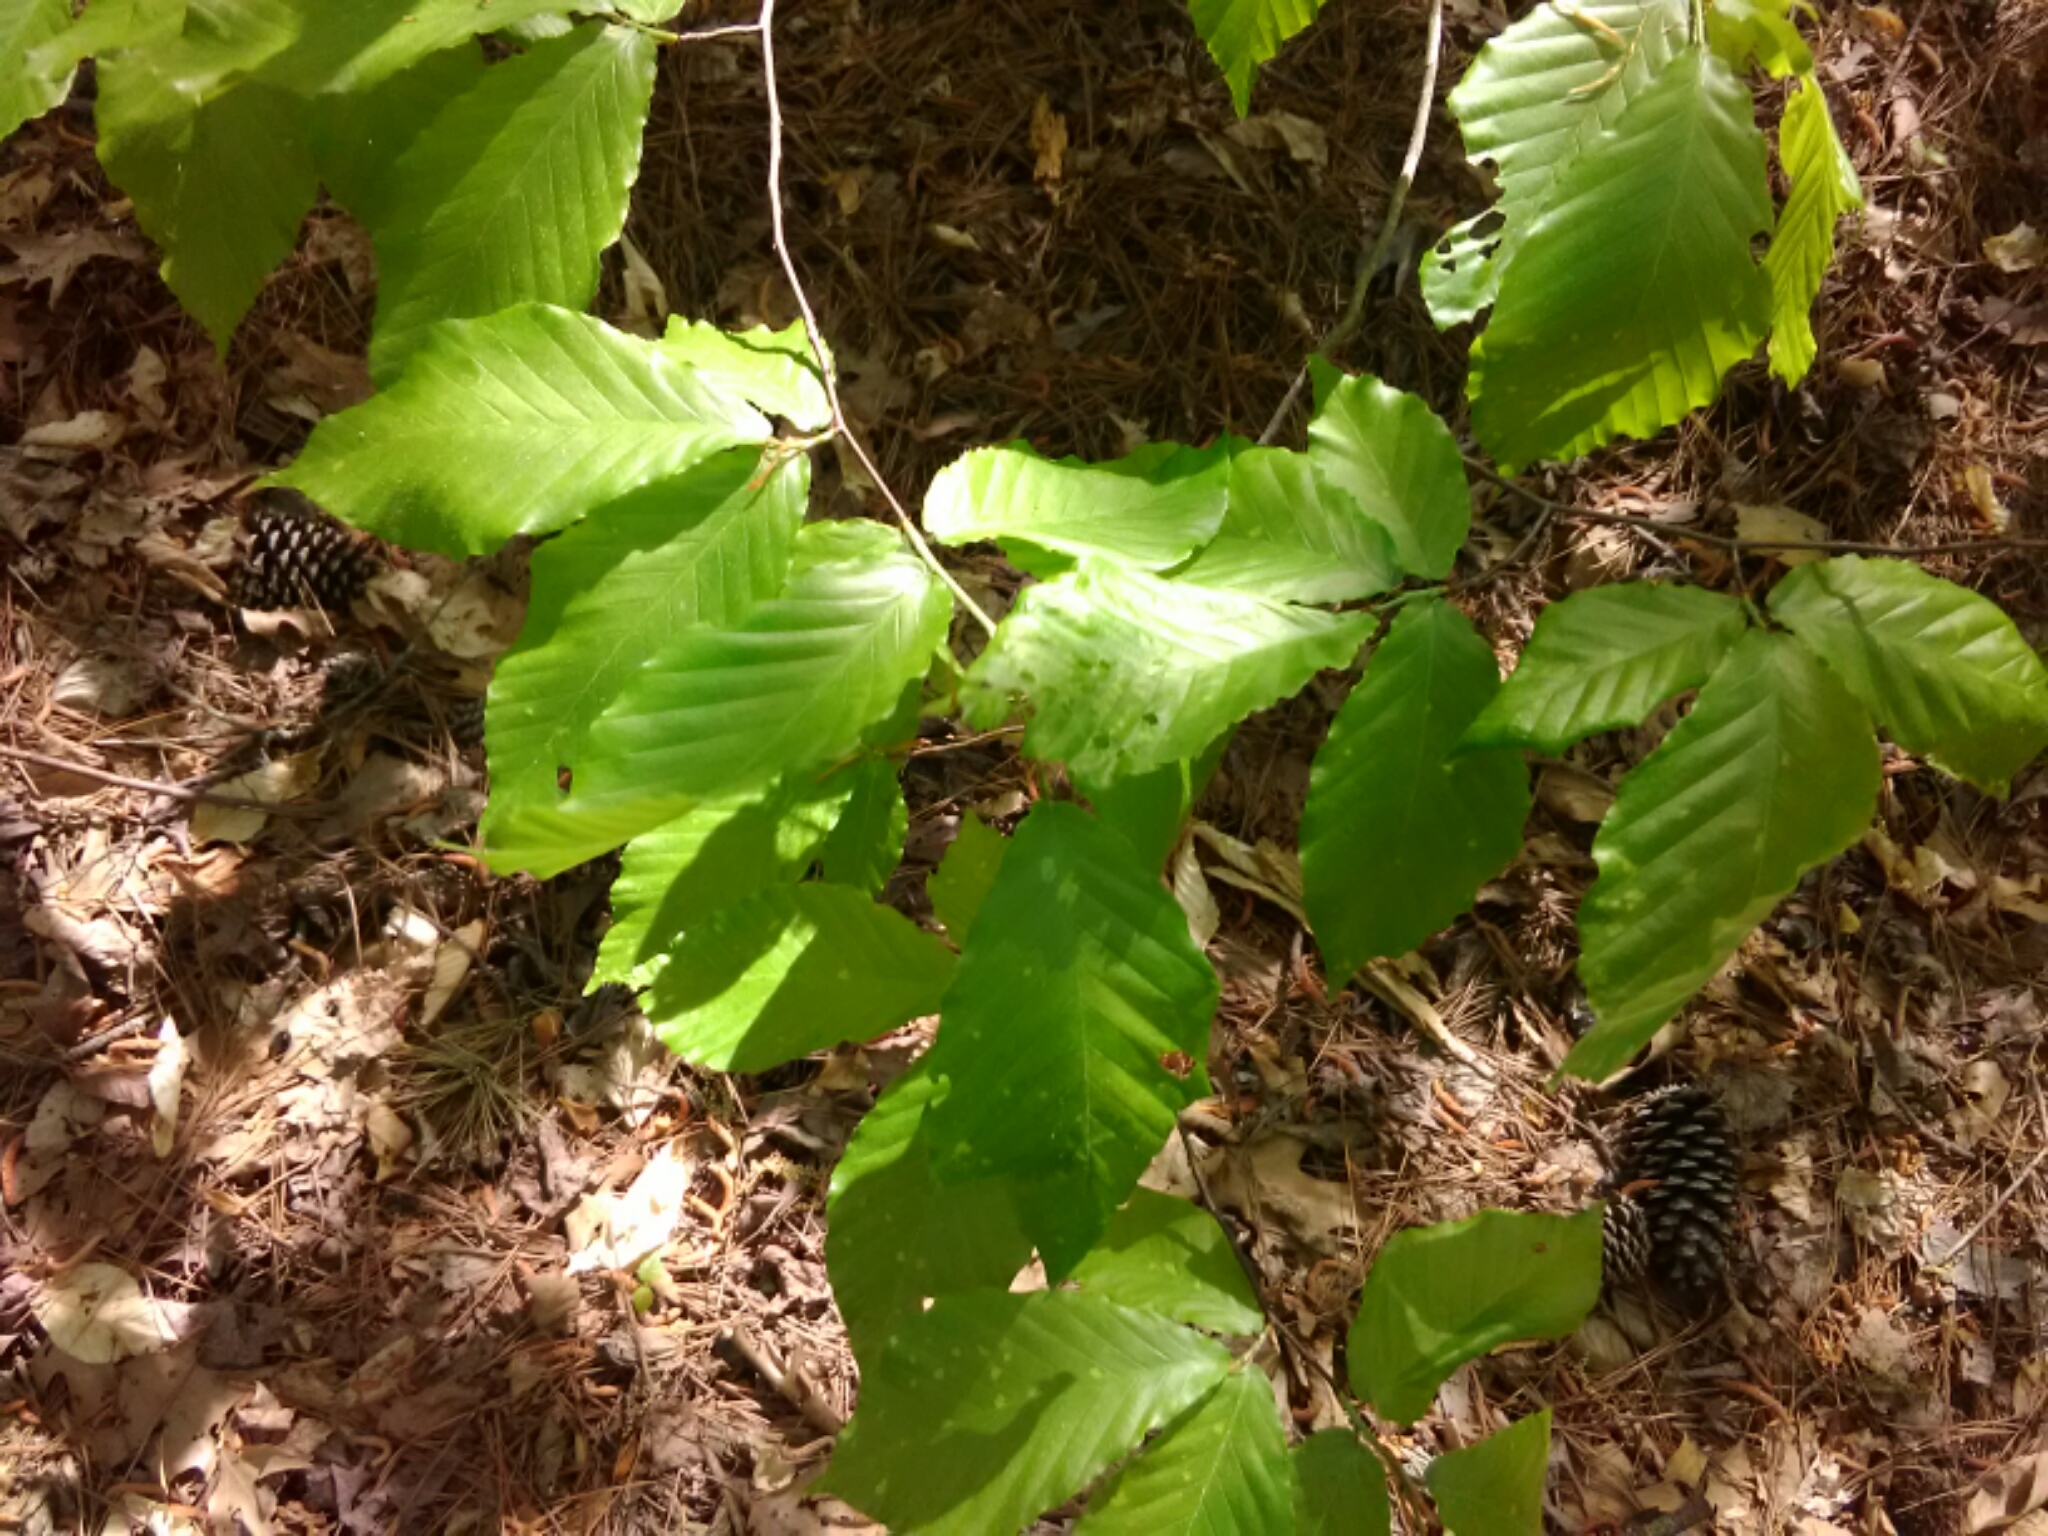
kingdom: Plantae
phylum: Tracheophyta
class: Magnoliopsida
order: Fagales
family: Fagaceae
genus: Fagus
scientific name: Fagus grandifolia
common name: American beech
